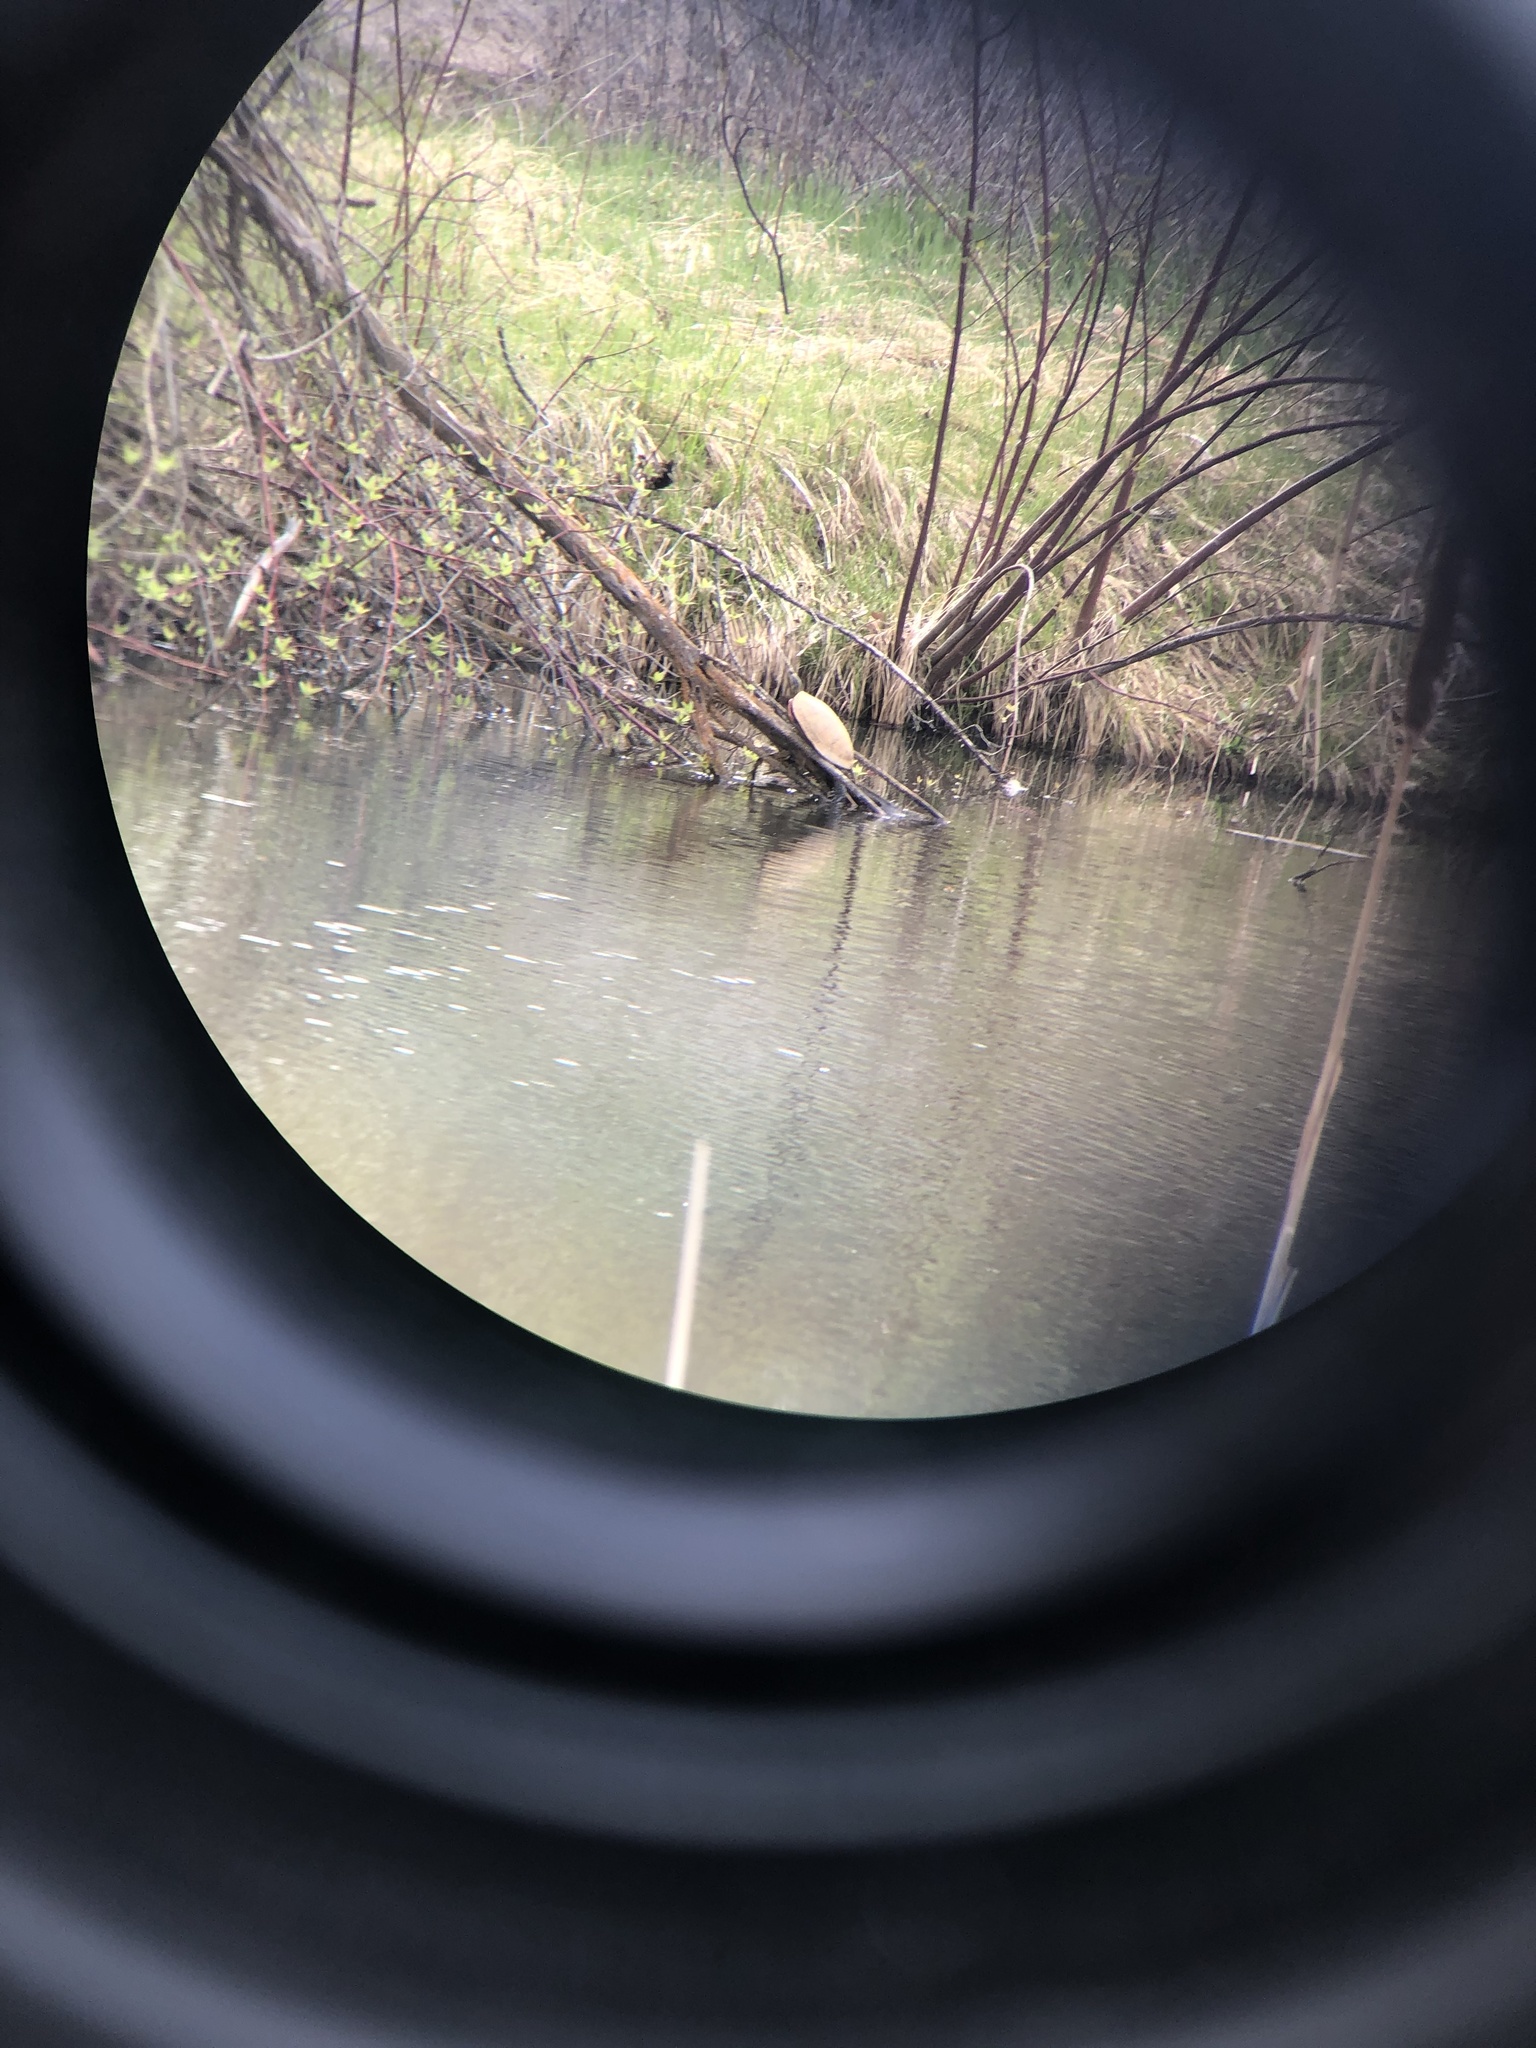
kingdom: Animalia
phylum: Chordata
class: Testudines
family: Emydidae
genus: Chrysemys
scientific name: Chrysemys picta
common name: Painted turtle
